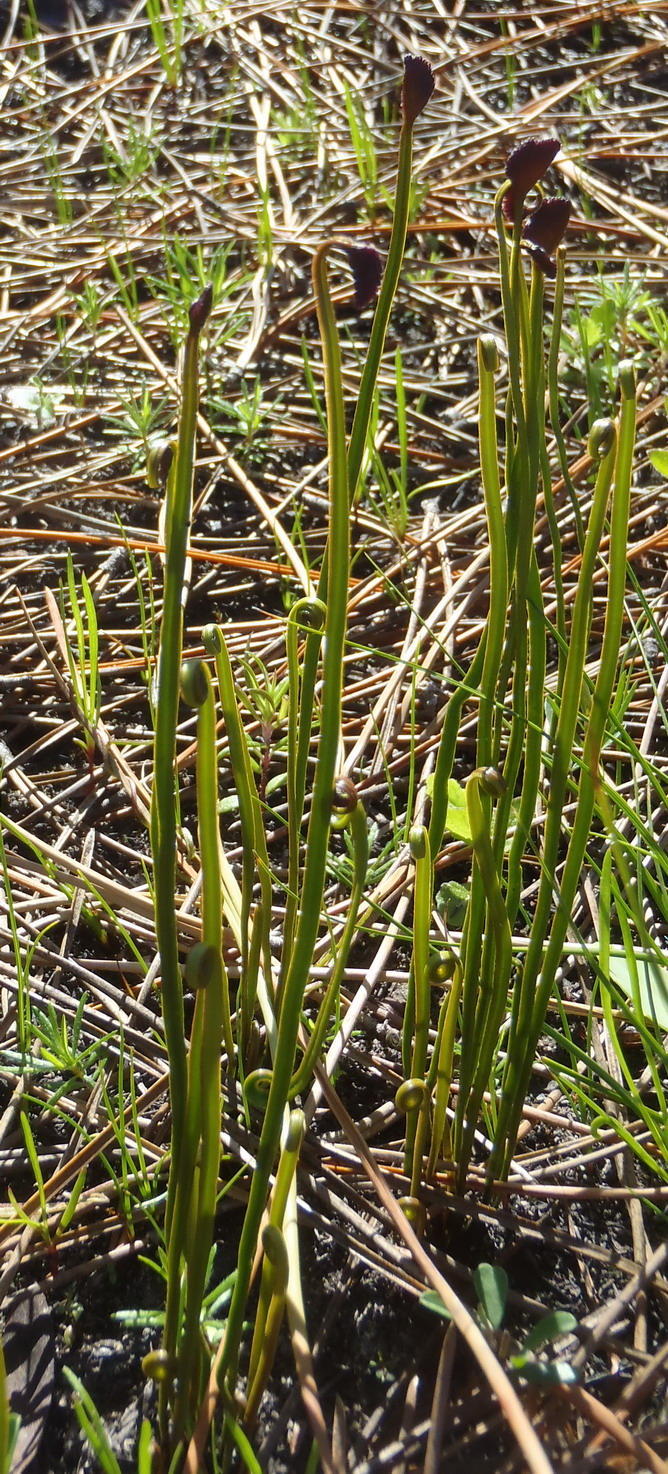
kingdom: Plantae
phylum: Tracheophyta
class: Polypodiopsida
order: Schizaeales
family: Schizaeaceae
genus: Schizaea
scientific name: Schizaea pectinata
